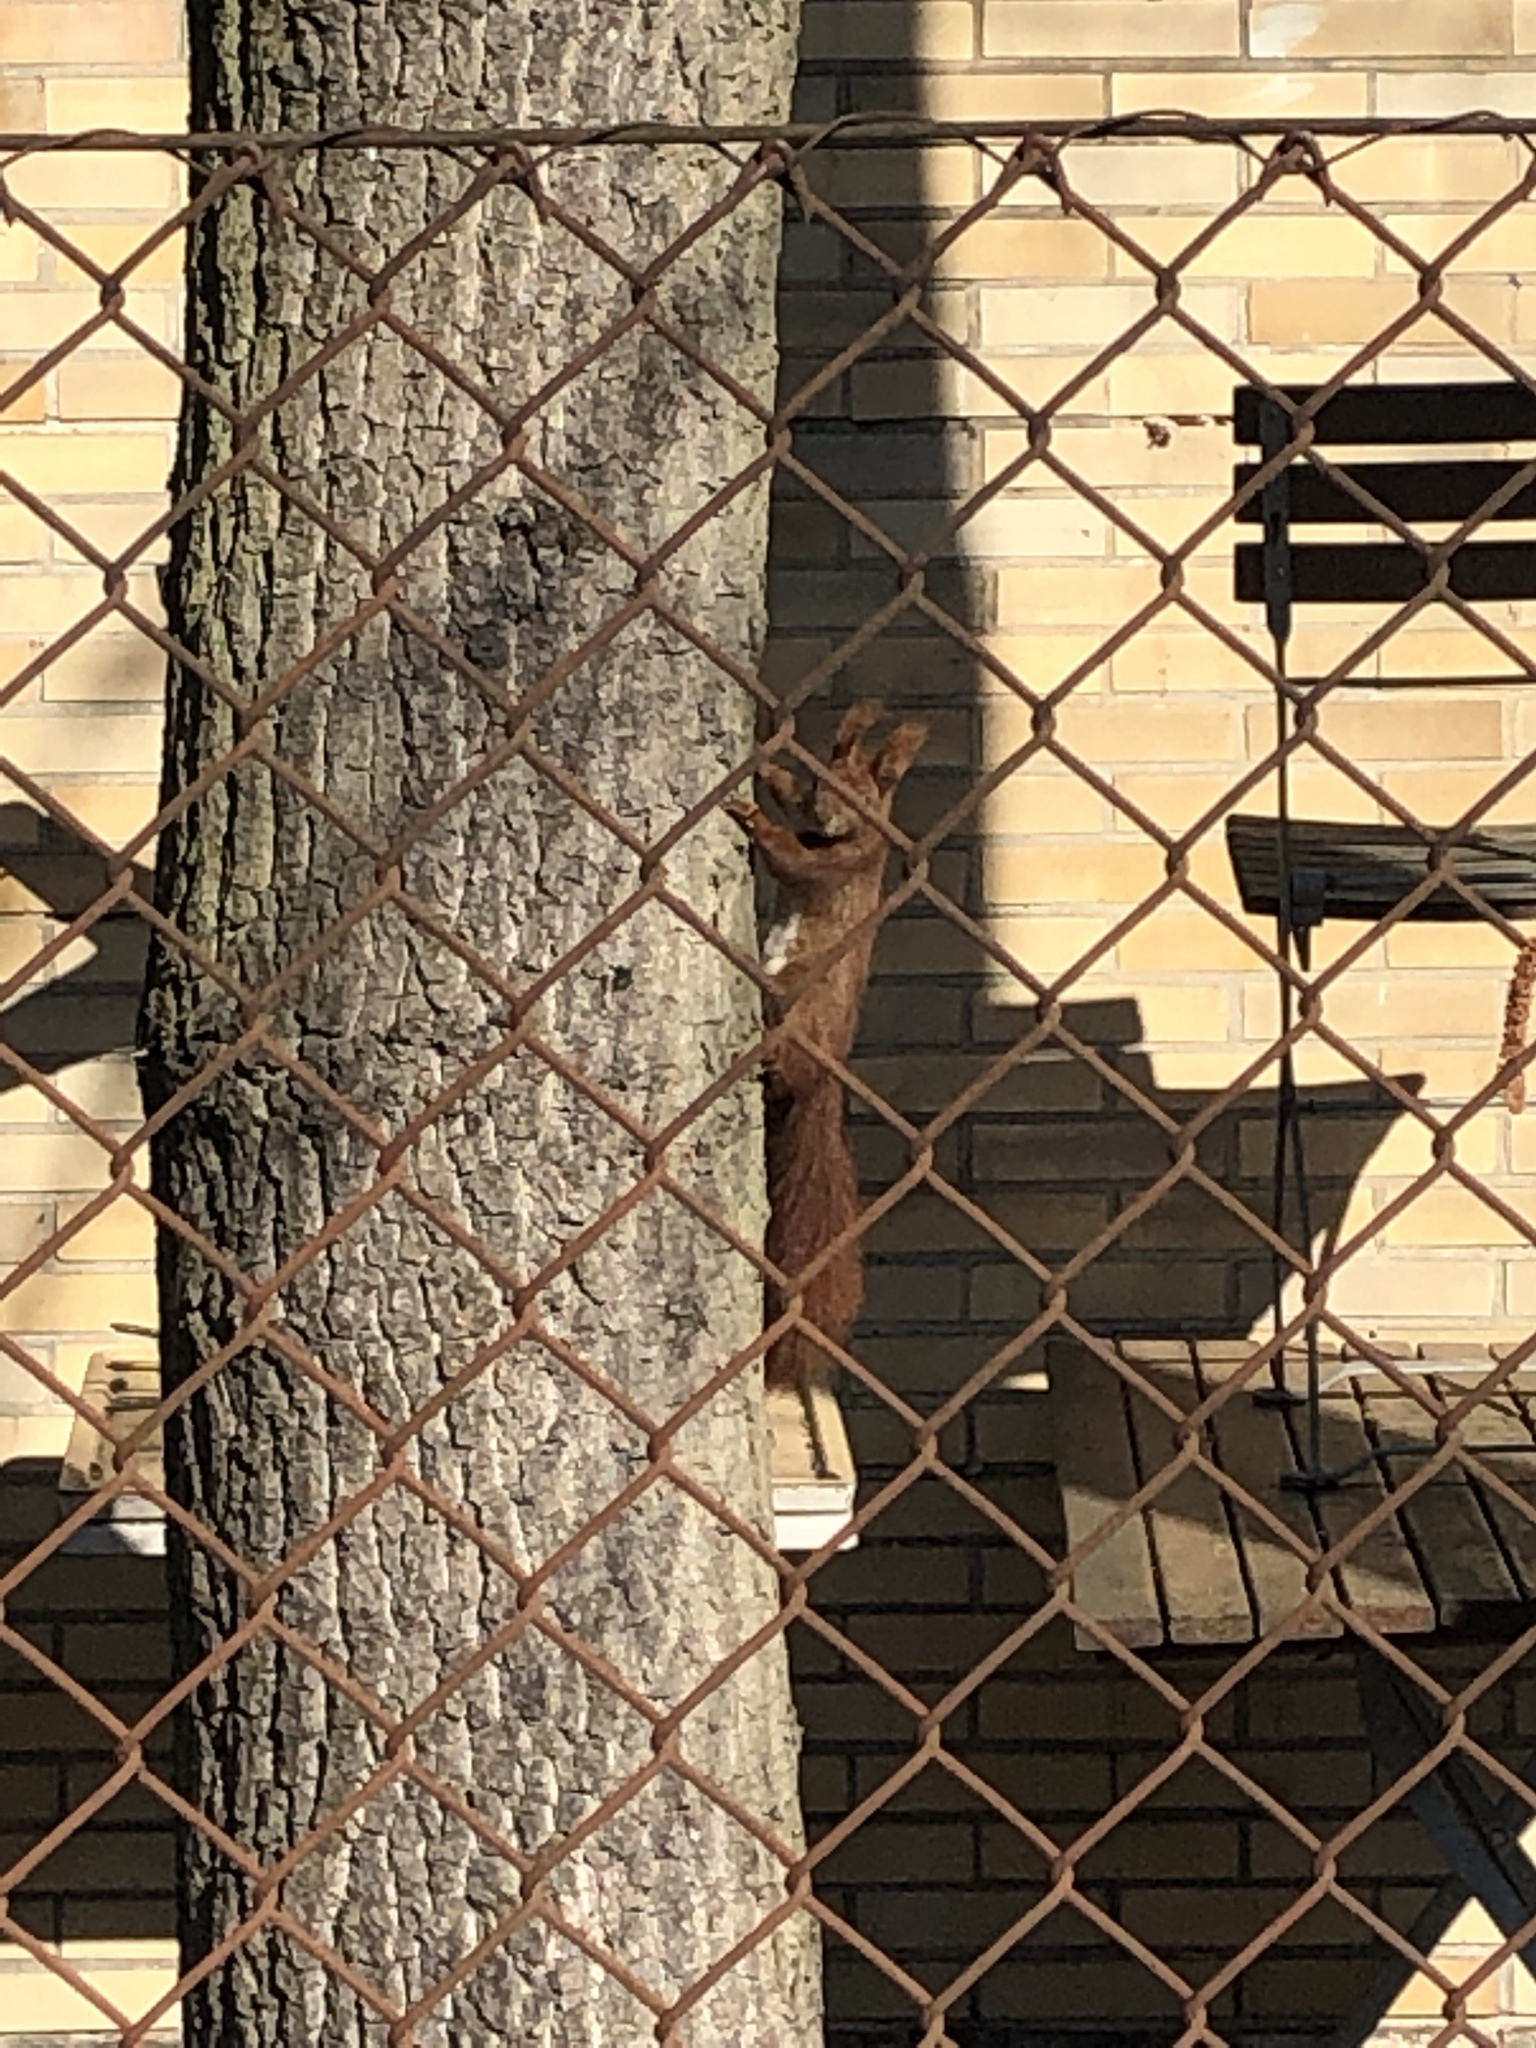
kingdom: Animalia
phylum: Chordata
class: Mammalia
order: Rodentia
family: Sciuridae
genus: Sciurus
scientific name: Sciurus vulgaris
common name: Eurasian red squirrel
